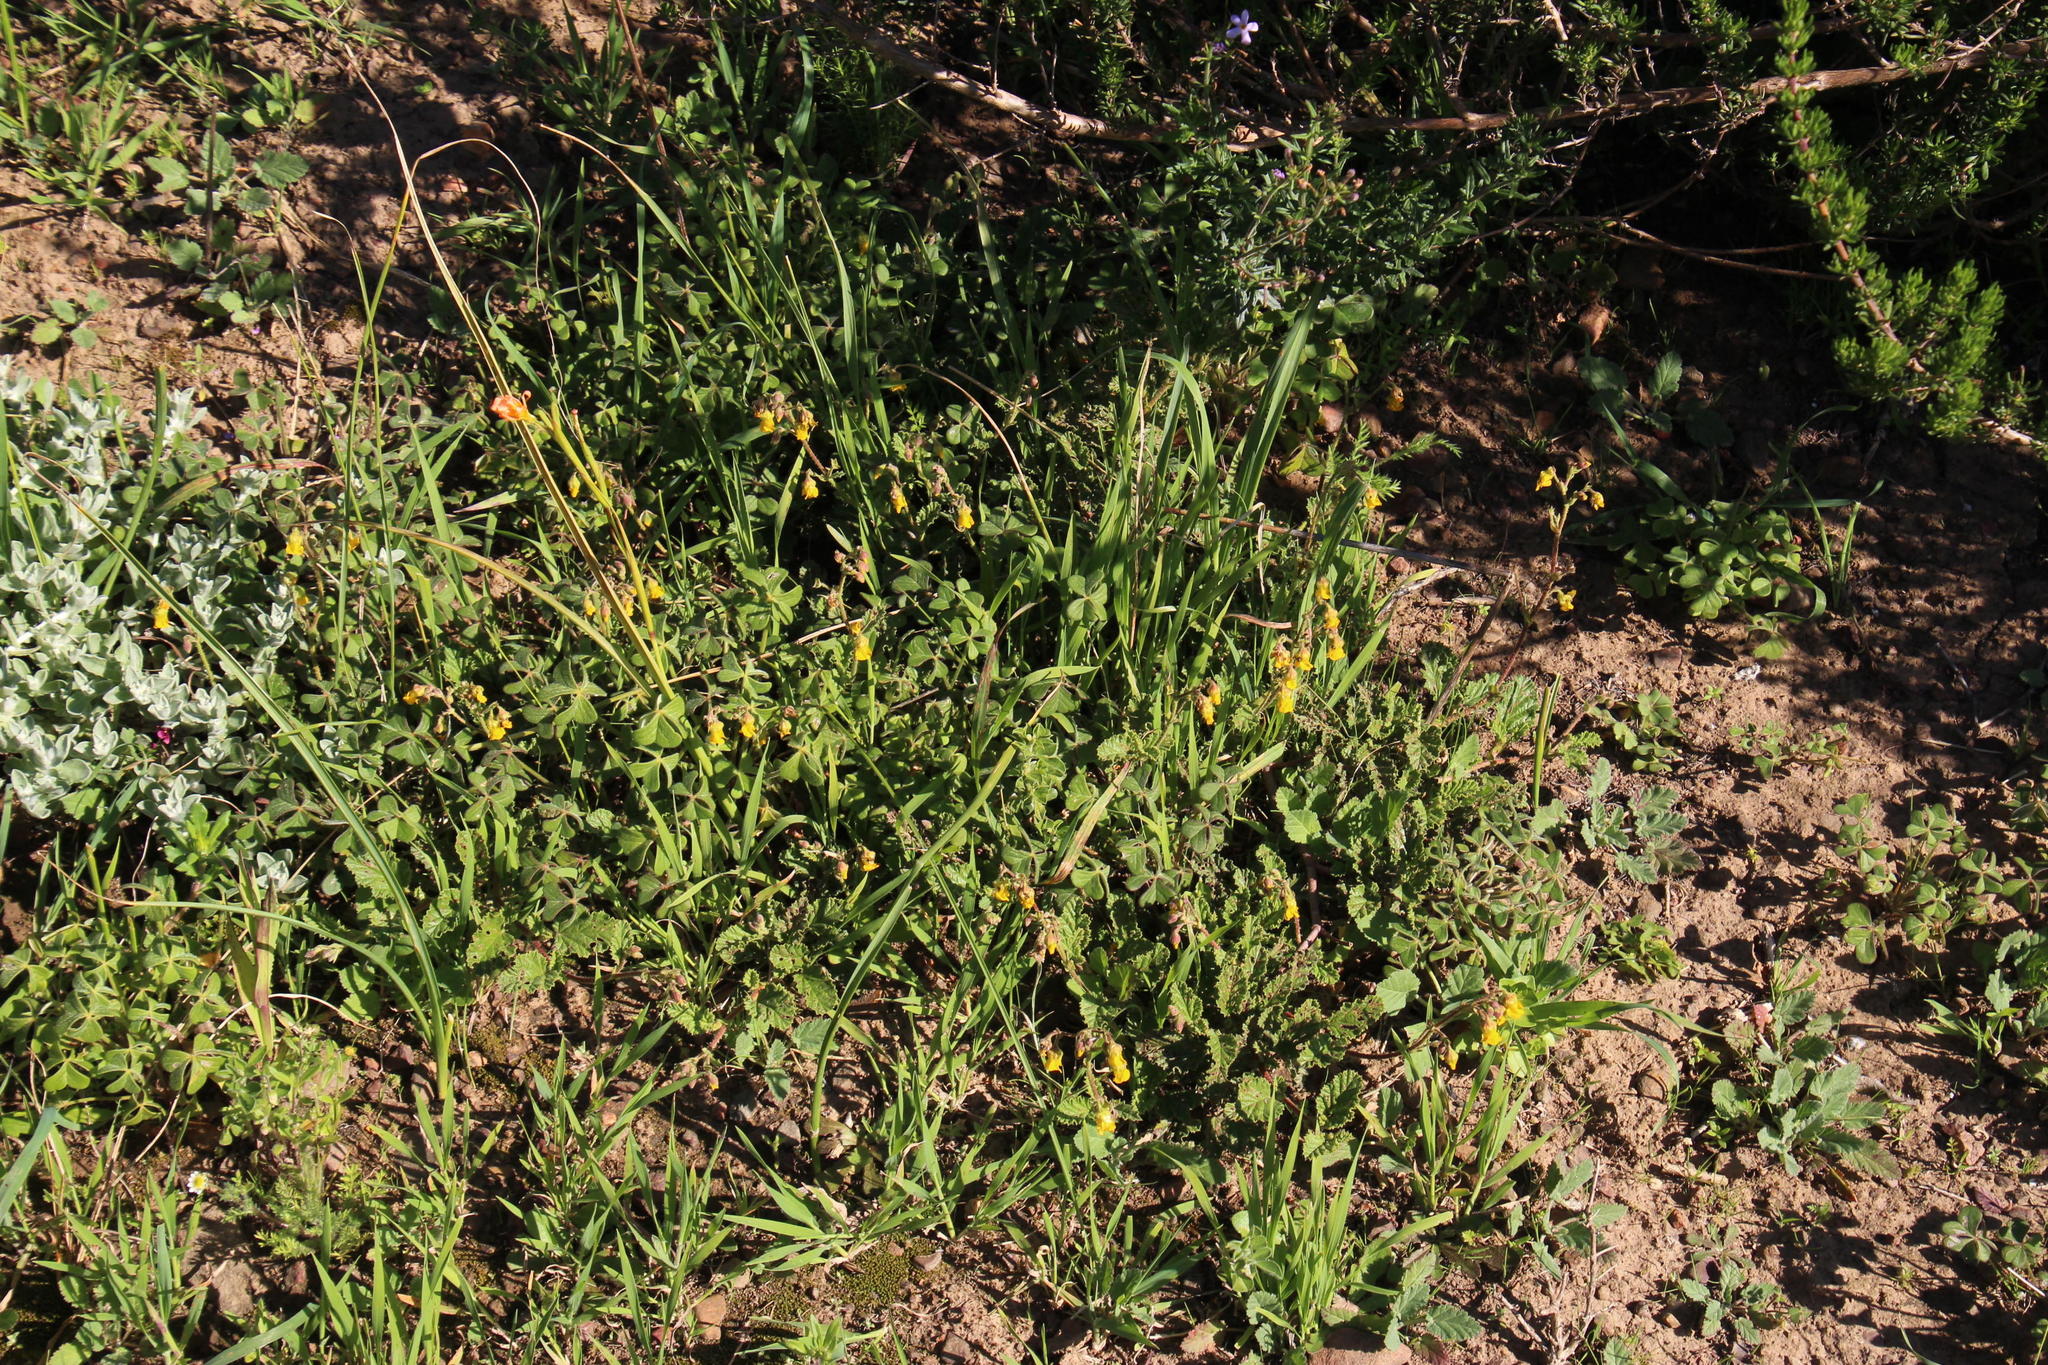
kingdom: Plantae
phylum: Tracheophyta
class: Magnoliopsida
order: Malvales
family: Malvaceae
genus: Hermannia
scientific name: Hermannia alnifolia
